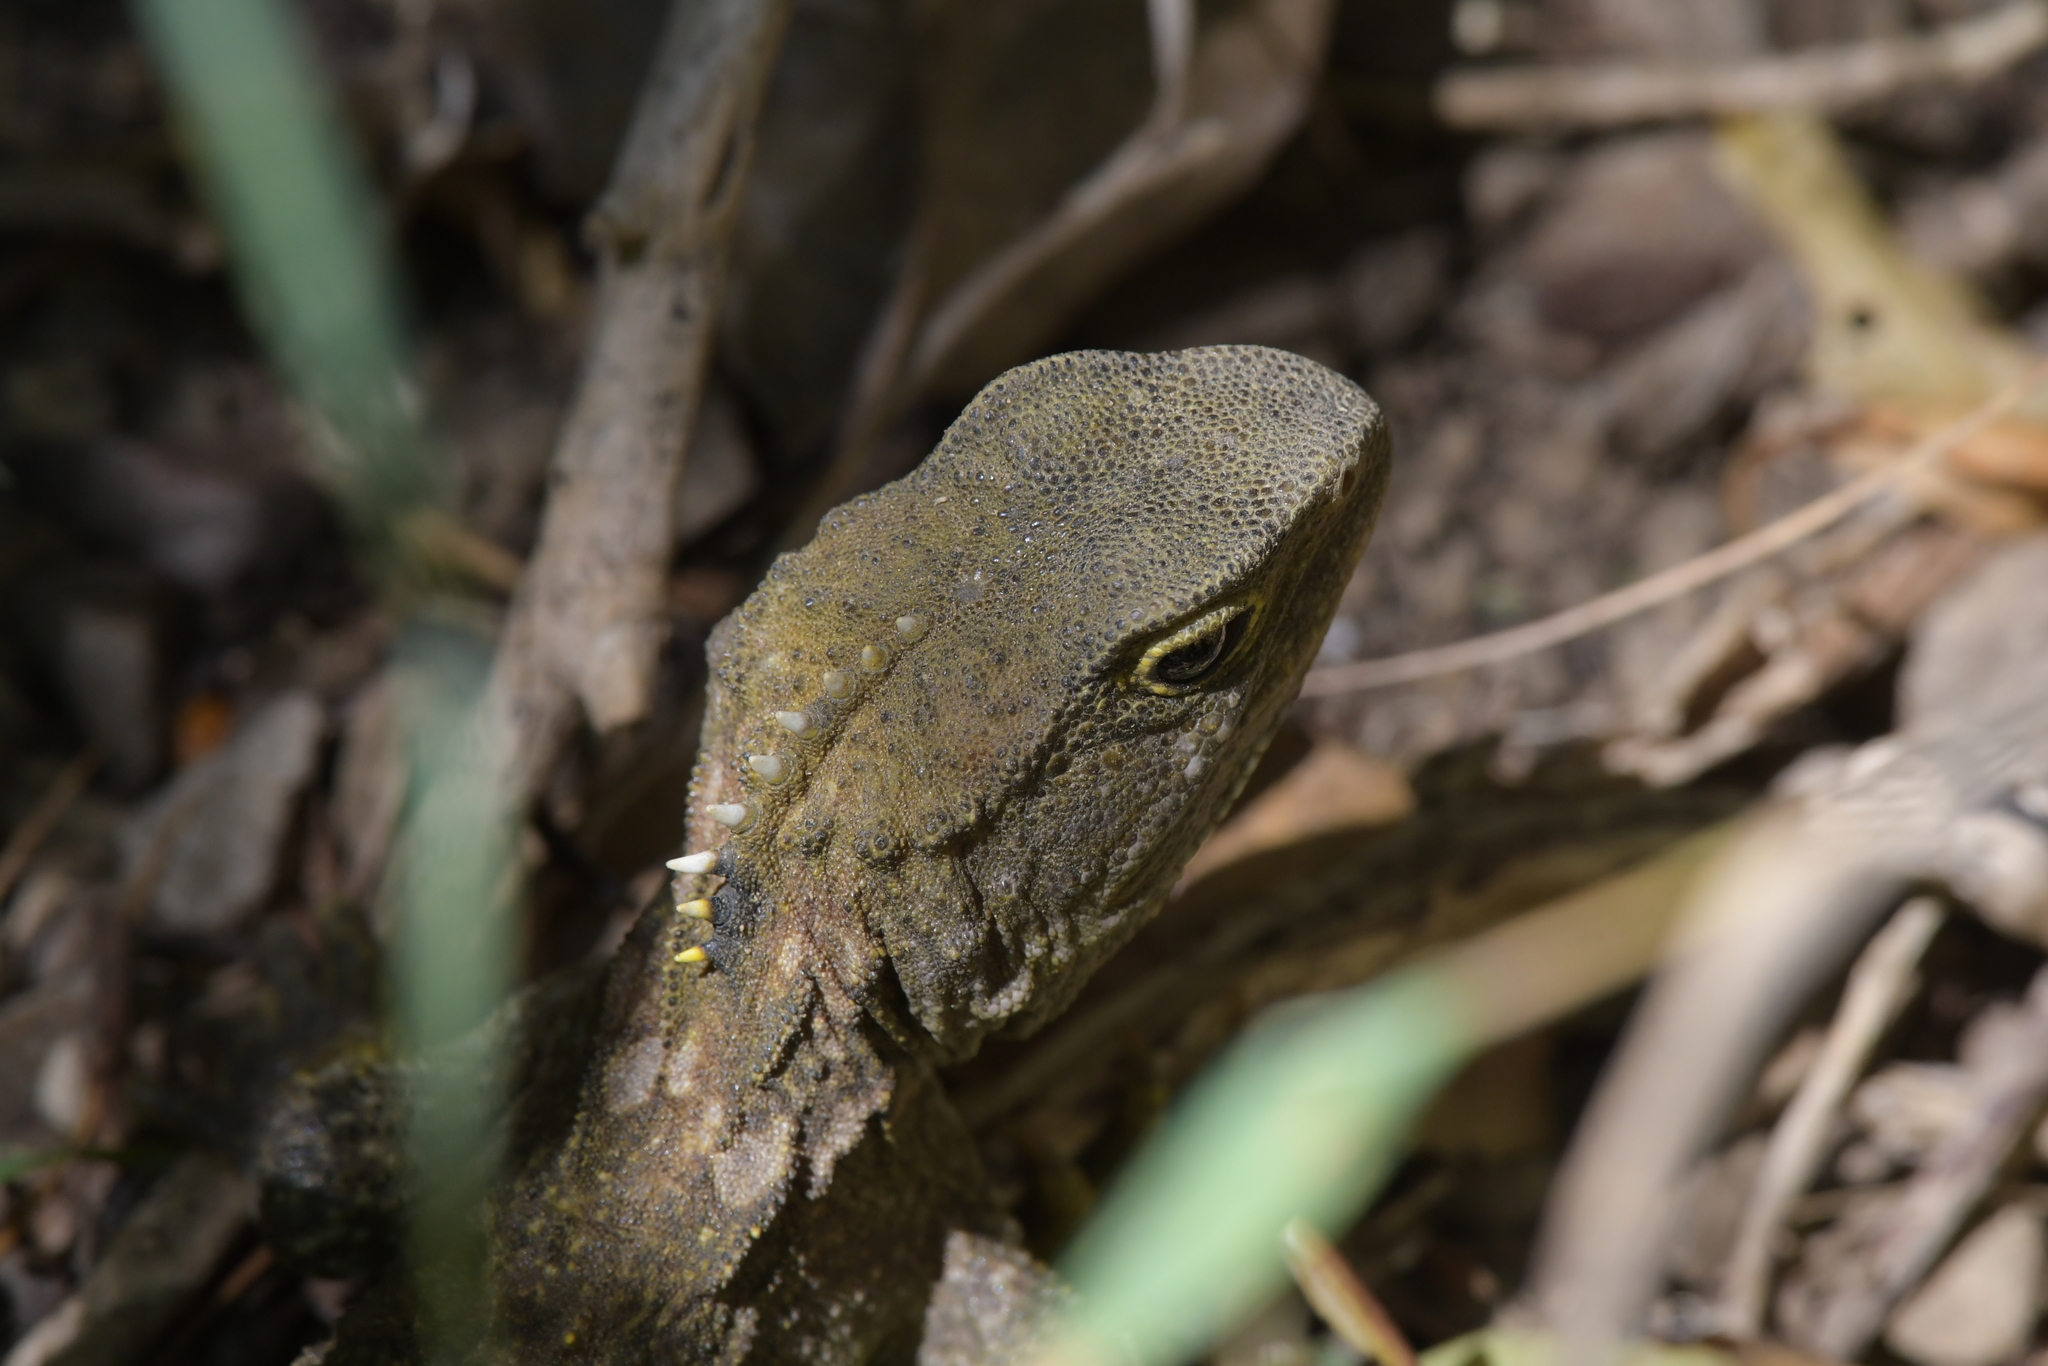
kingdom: Animalia
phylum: Chordata
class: Sphenodontia
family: Sphenodontidae
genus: Sphenodon
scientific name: Sphenodon punctatus
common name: Tuatara
